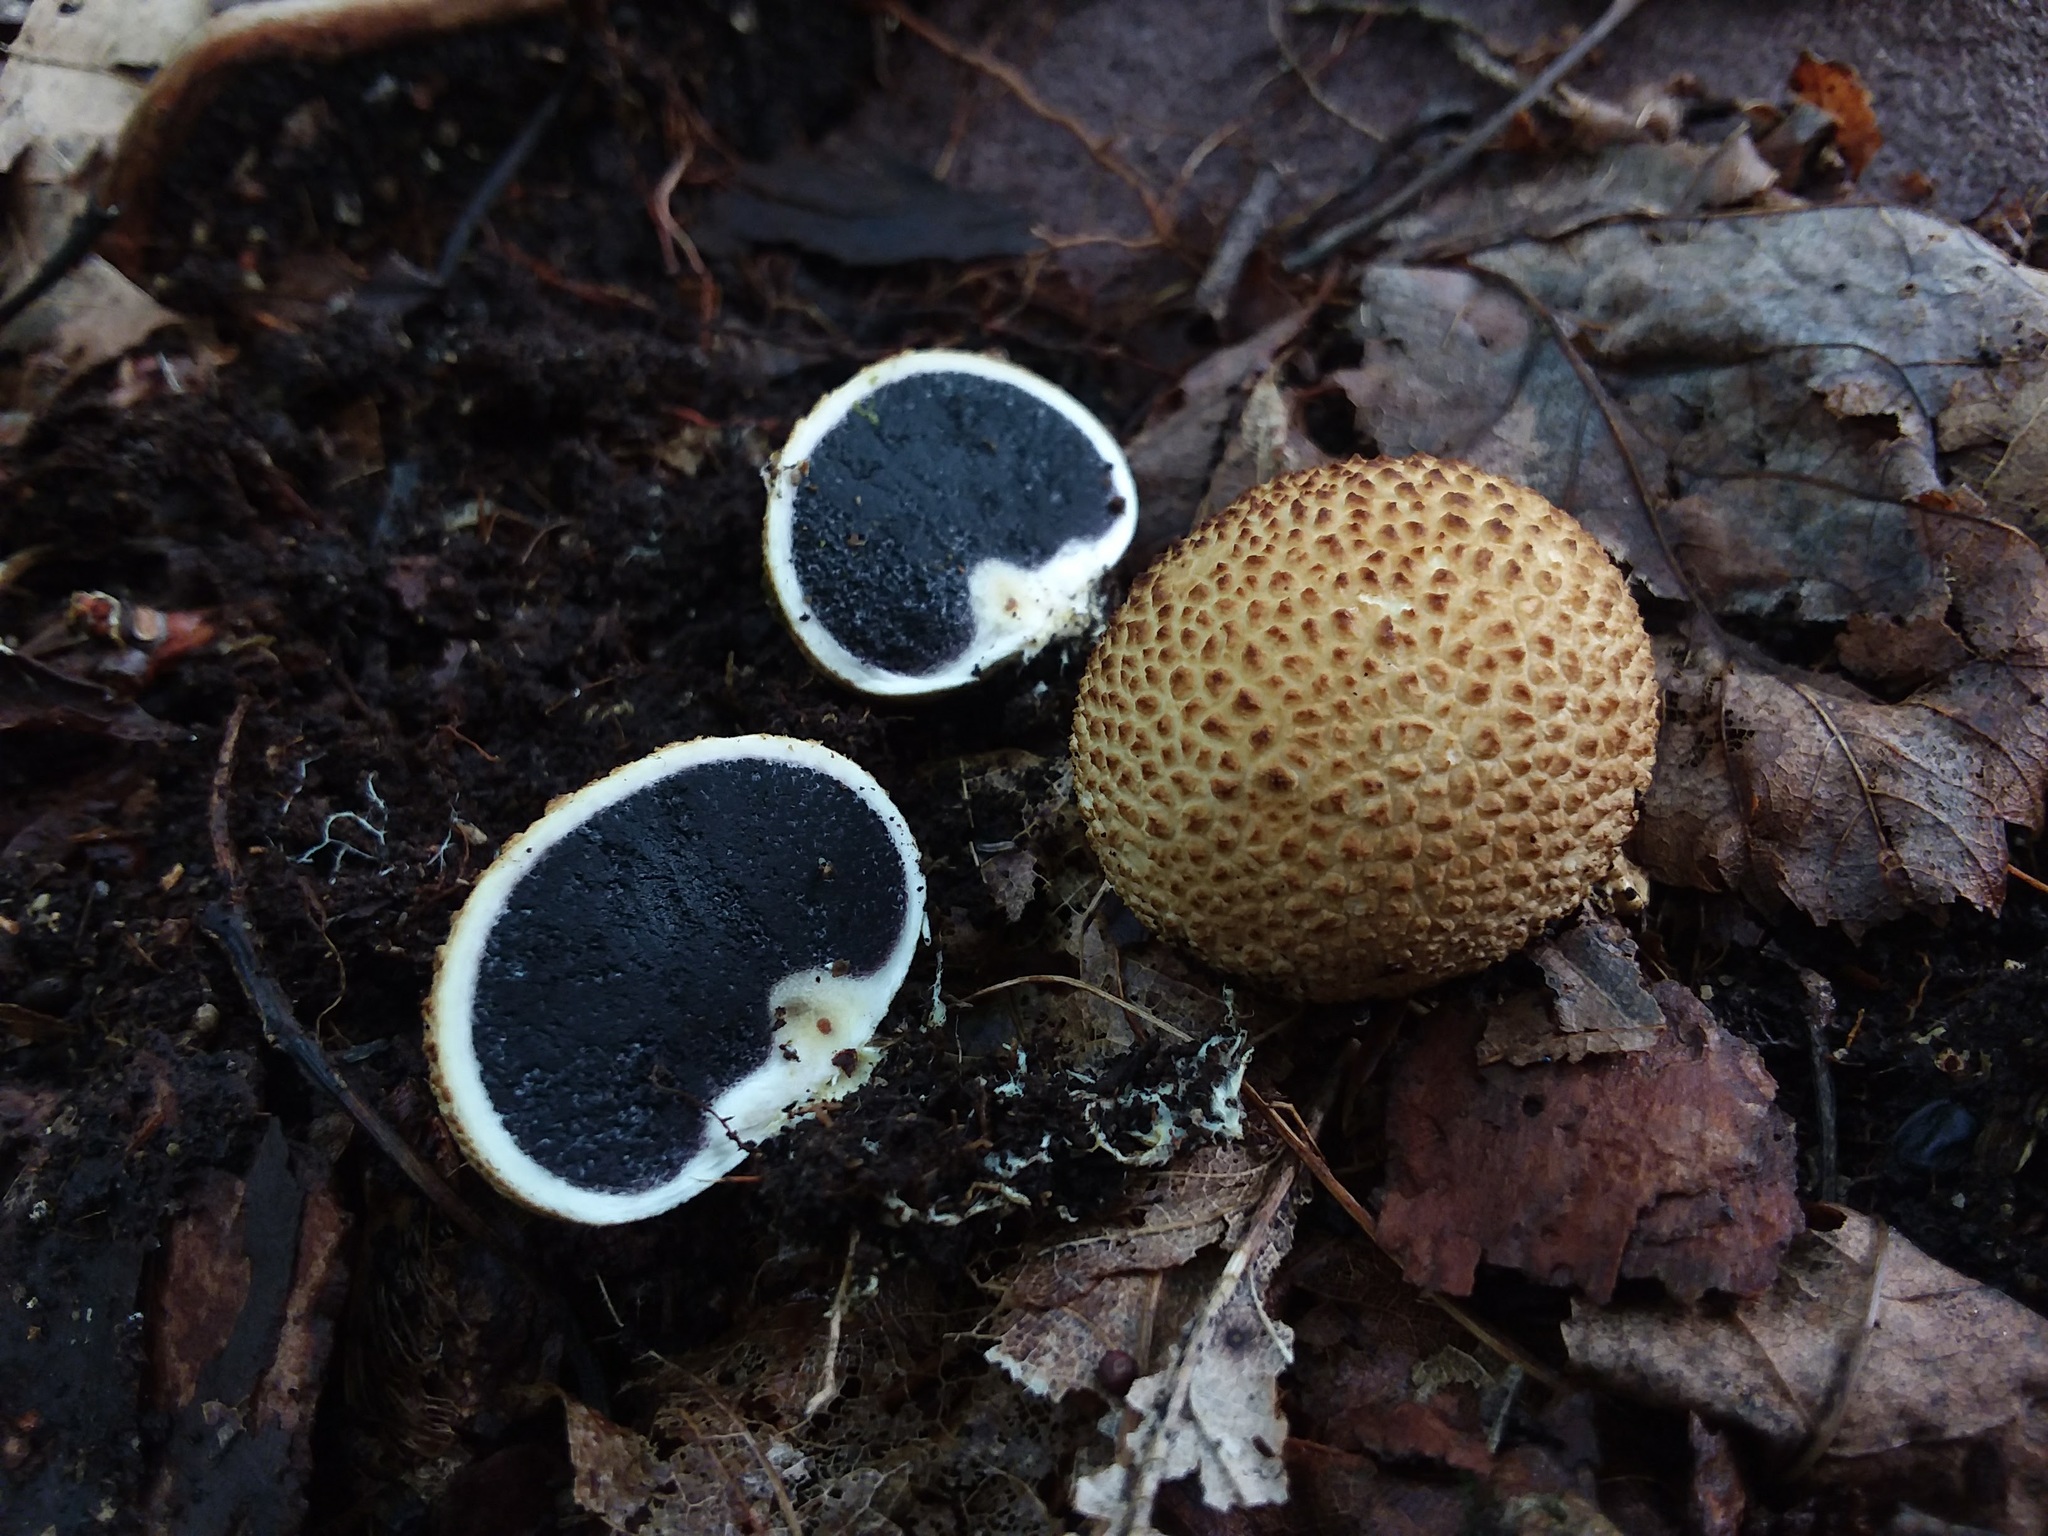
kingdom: Fungi
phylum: Basidiomycota
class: Agaricomycetes
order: Boletales
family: Sclerodermataceae
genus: Scleroderma
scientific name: Scleroderma citrinum
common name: Common earthball
